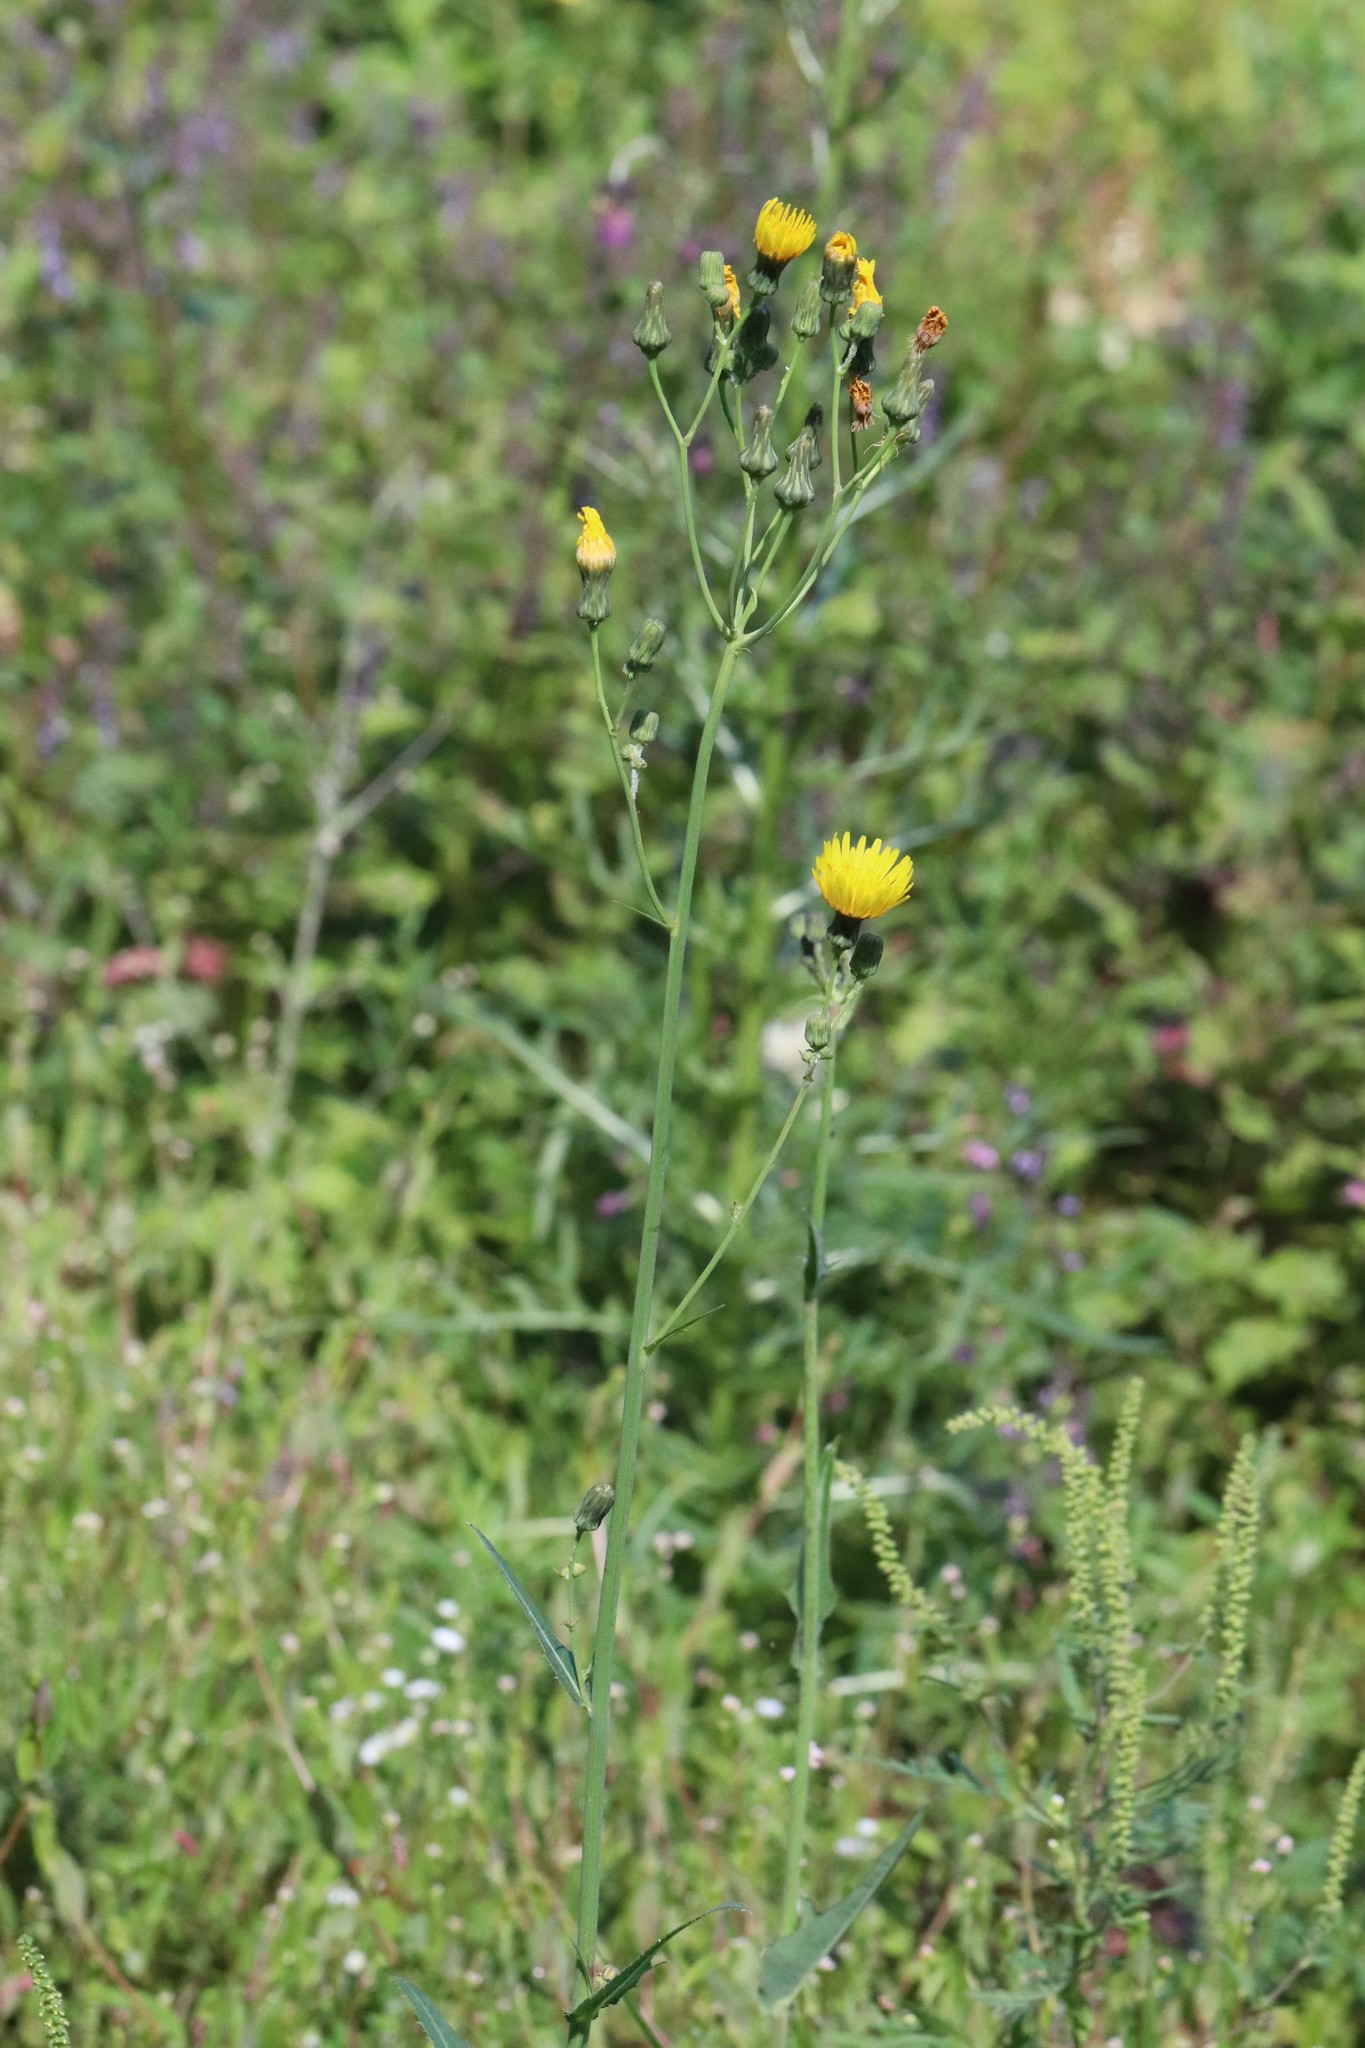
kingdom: Plantae
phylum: Tracheophyta
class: Magnoliopsida
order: Asterales
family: Asteraceae
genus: Sonchus
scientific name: Sonchus arvensis
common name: Perennial sow-thistle
